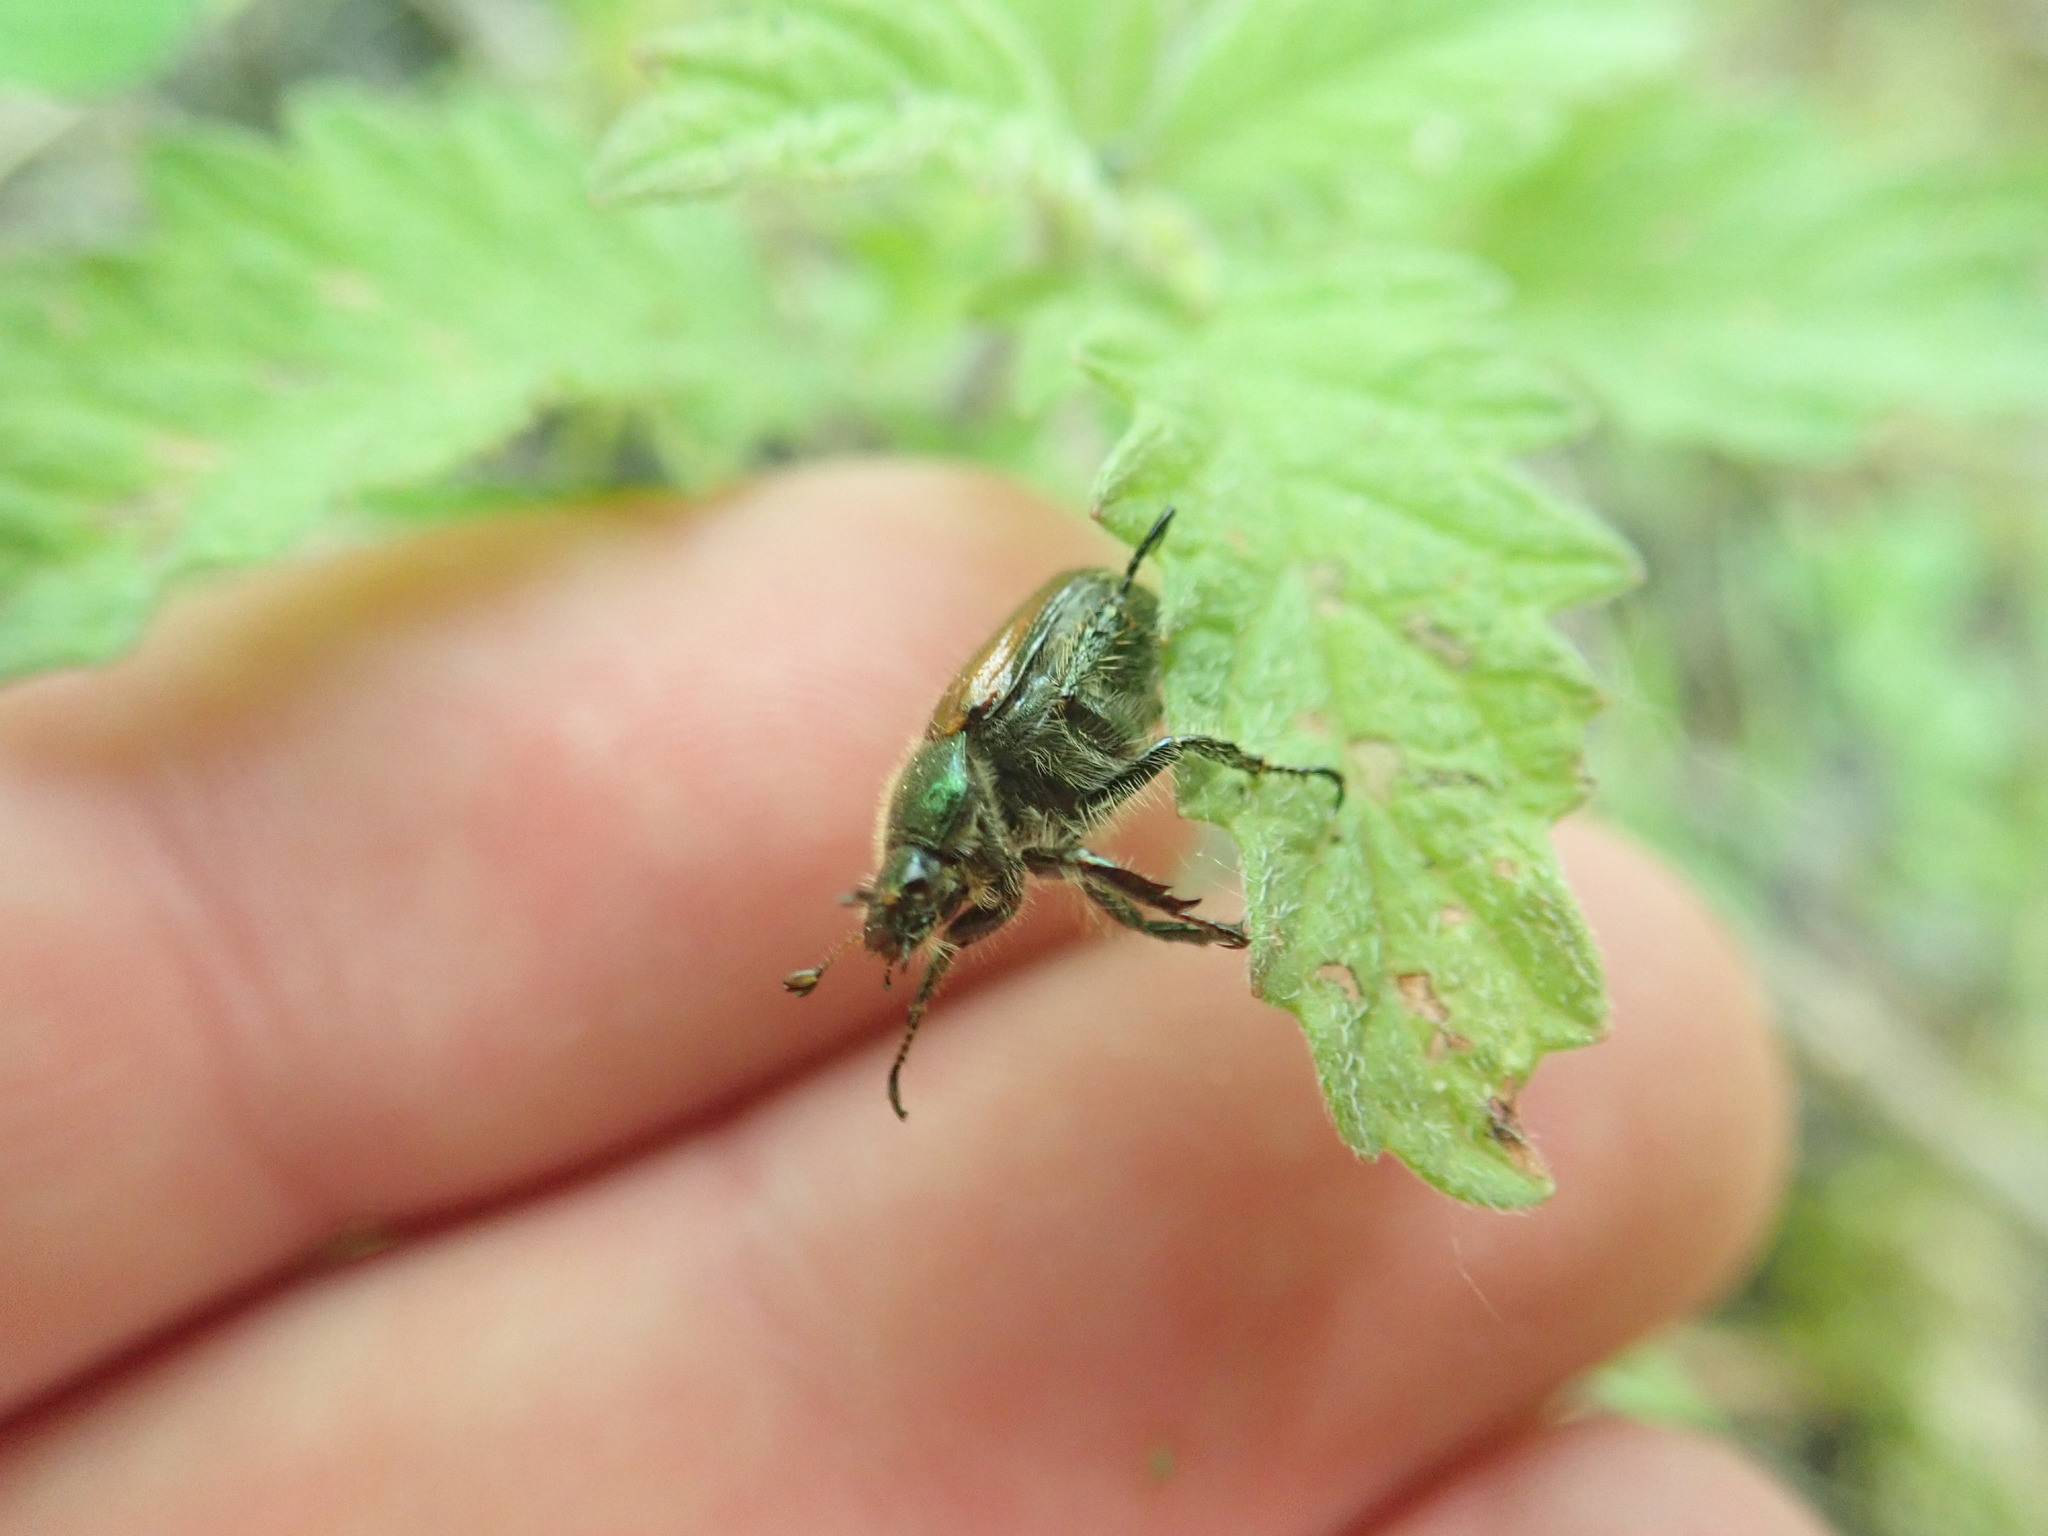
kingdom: Animalia
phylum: Arthropoda
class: Insecta
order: Coleoptera
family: Scarabaeidae
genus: Phyllopertha
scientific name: Phyllopertha horticola
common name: Garden chafer
